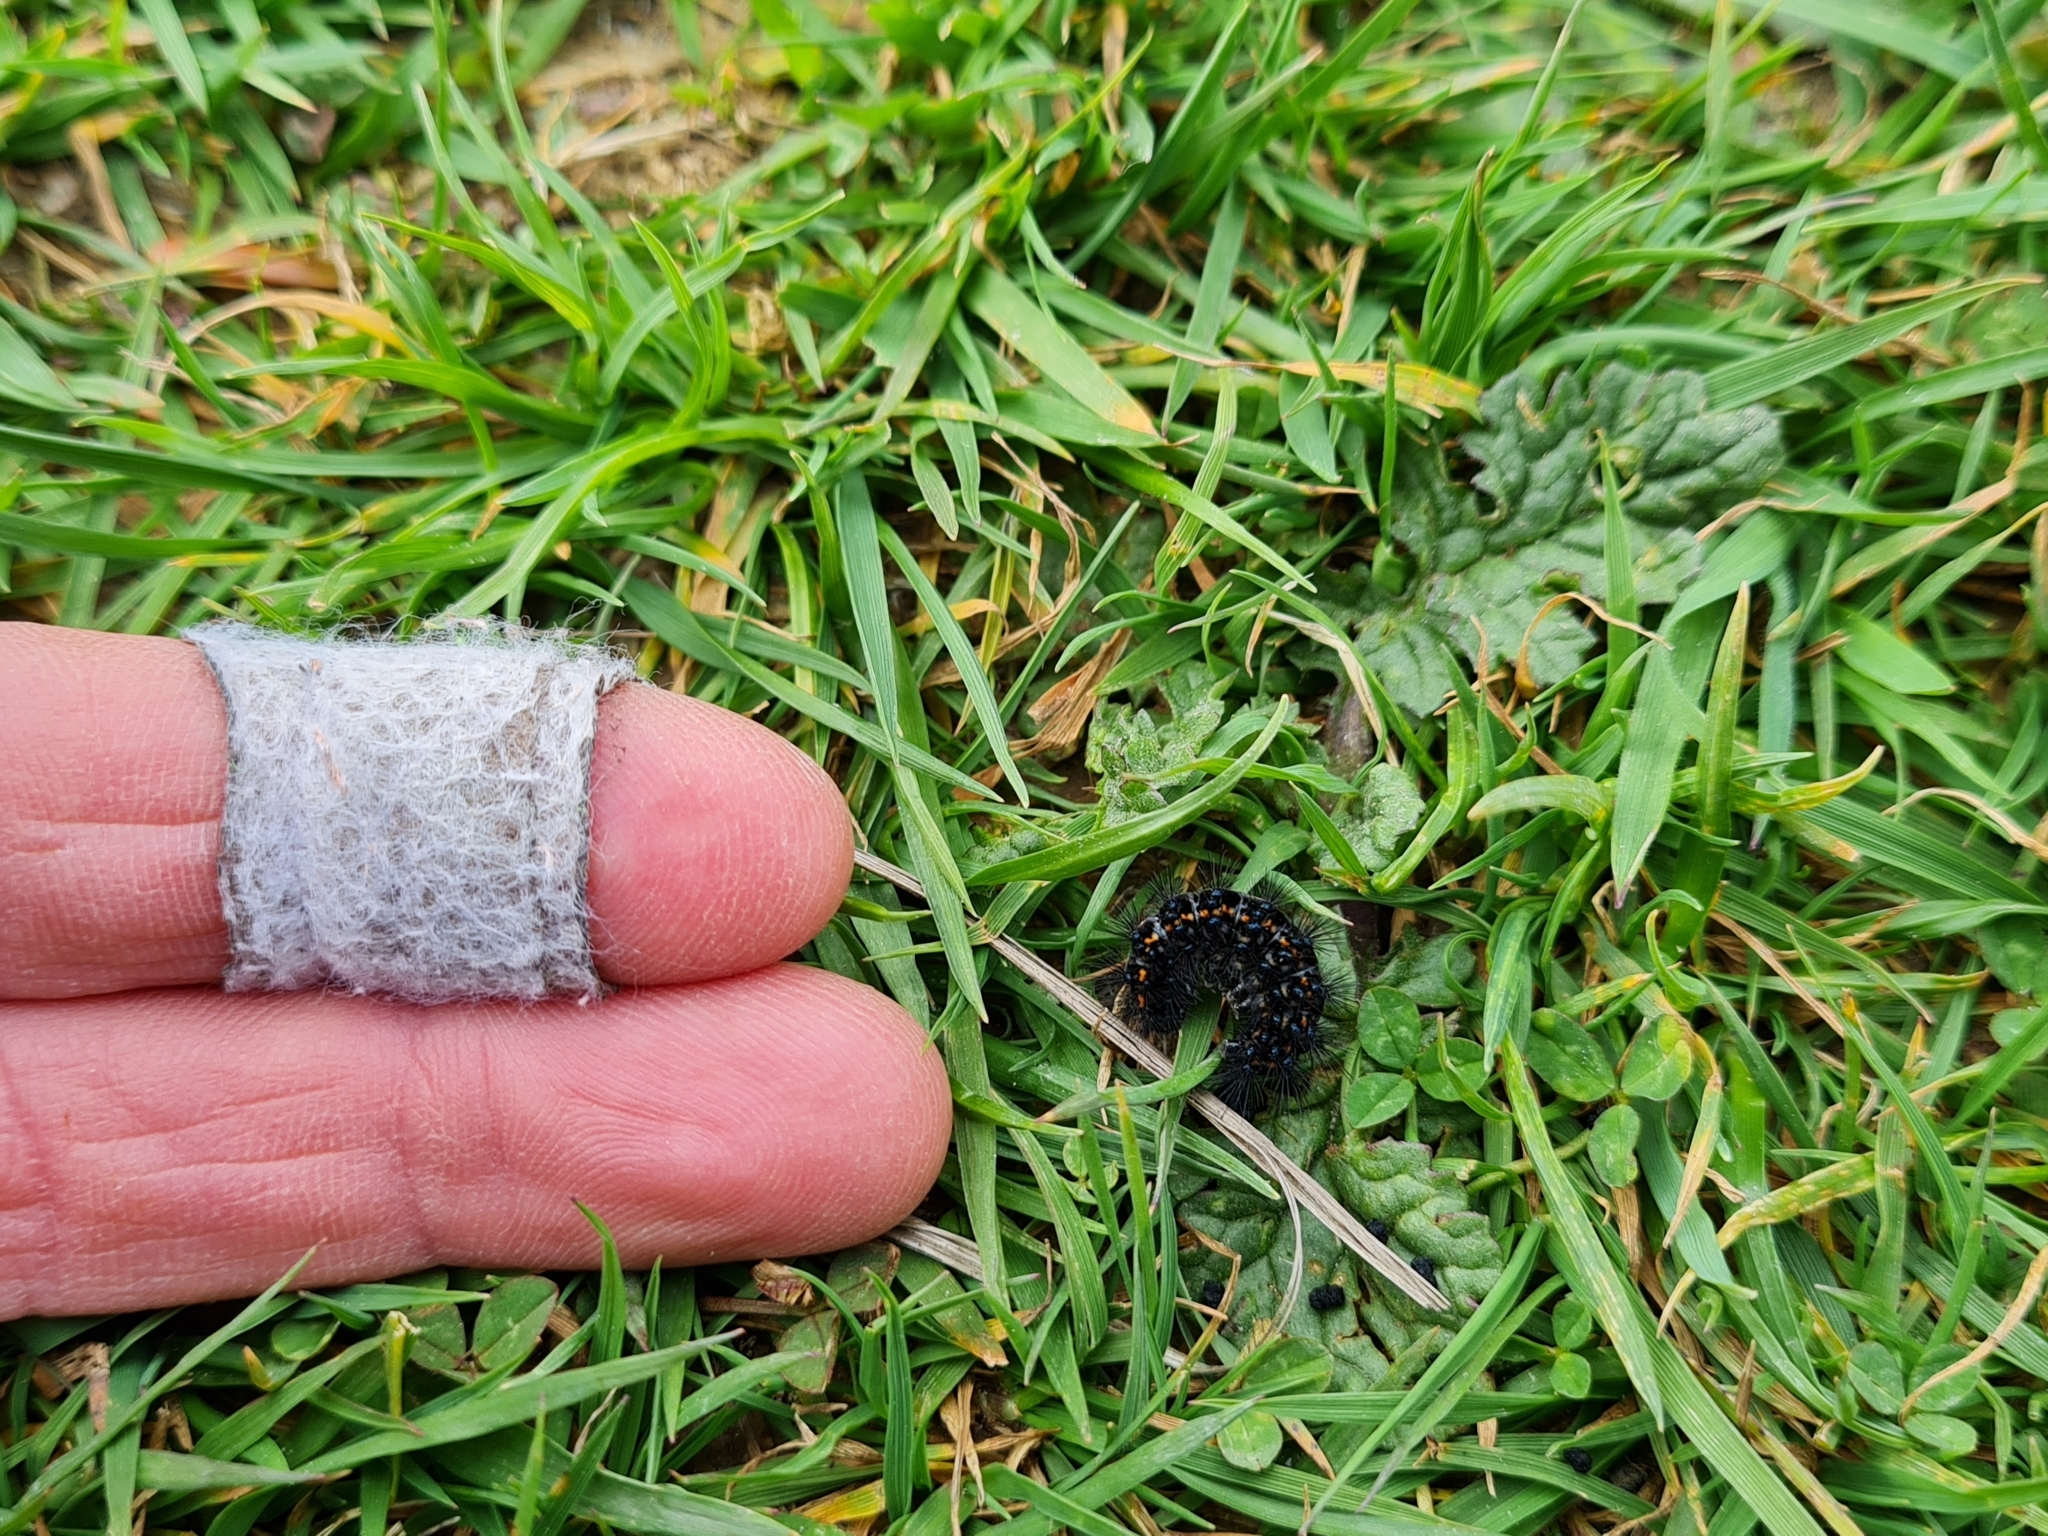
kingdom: Animalia
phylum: Arthropoda
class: Insecta
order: Lepidoptera
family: Erebidae
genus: Nyctemera
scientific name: Nyctemera annulatum
